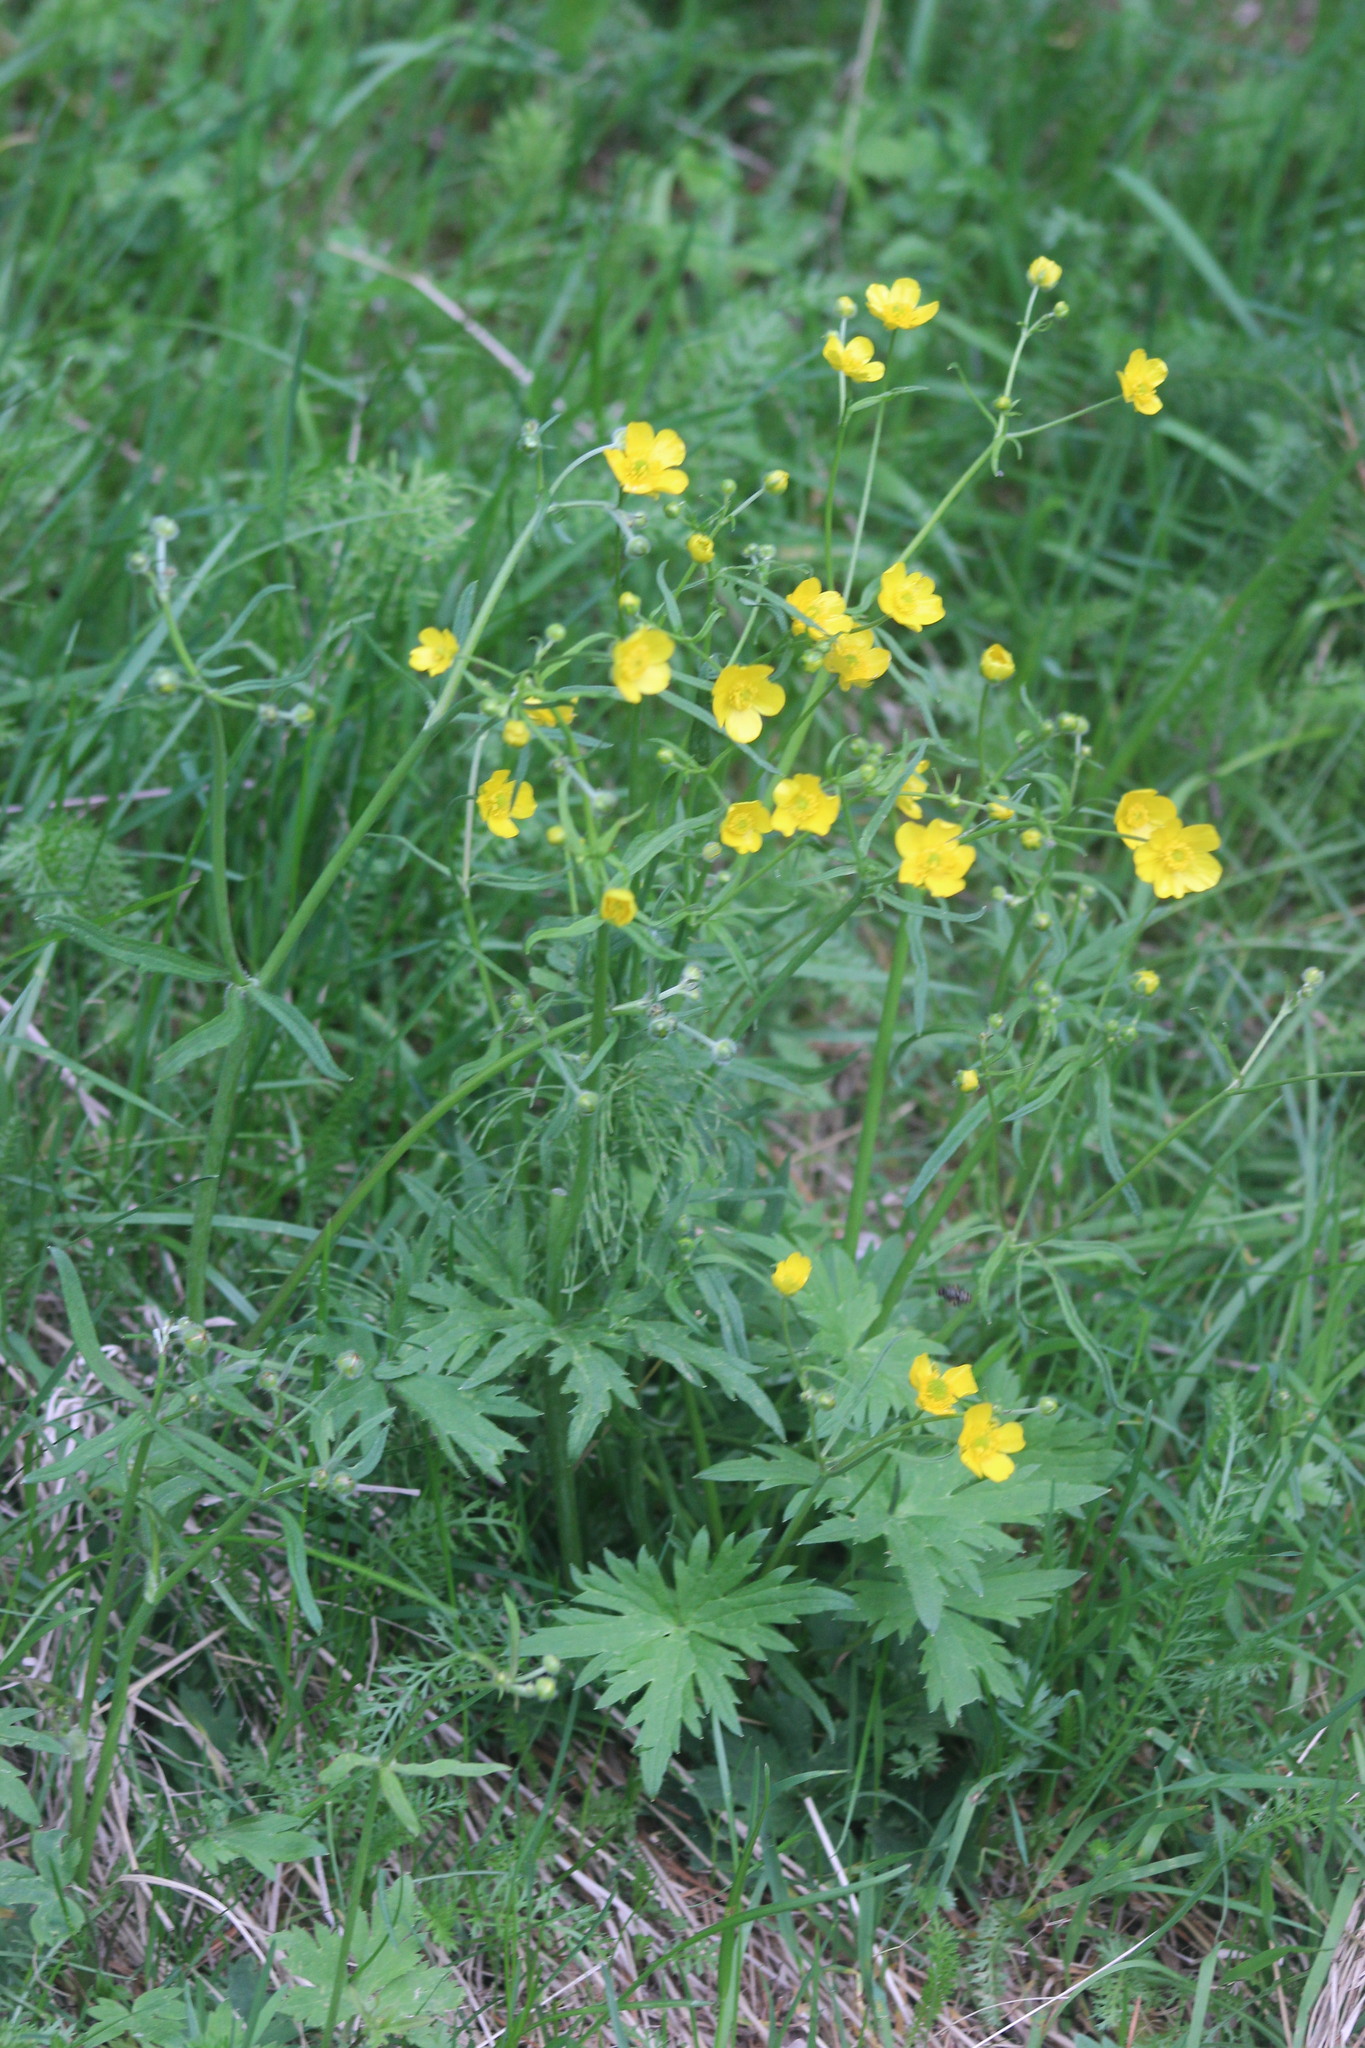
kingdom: Plantae
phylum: Tracheophyta
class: Magnoliopsida
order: Ranunculales
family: Ranunculaceae
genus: Ranunculus
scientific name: Ranunculus propinquus
